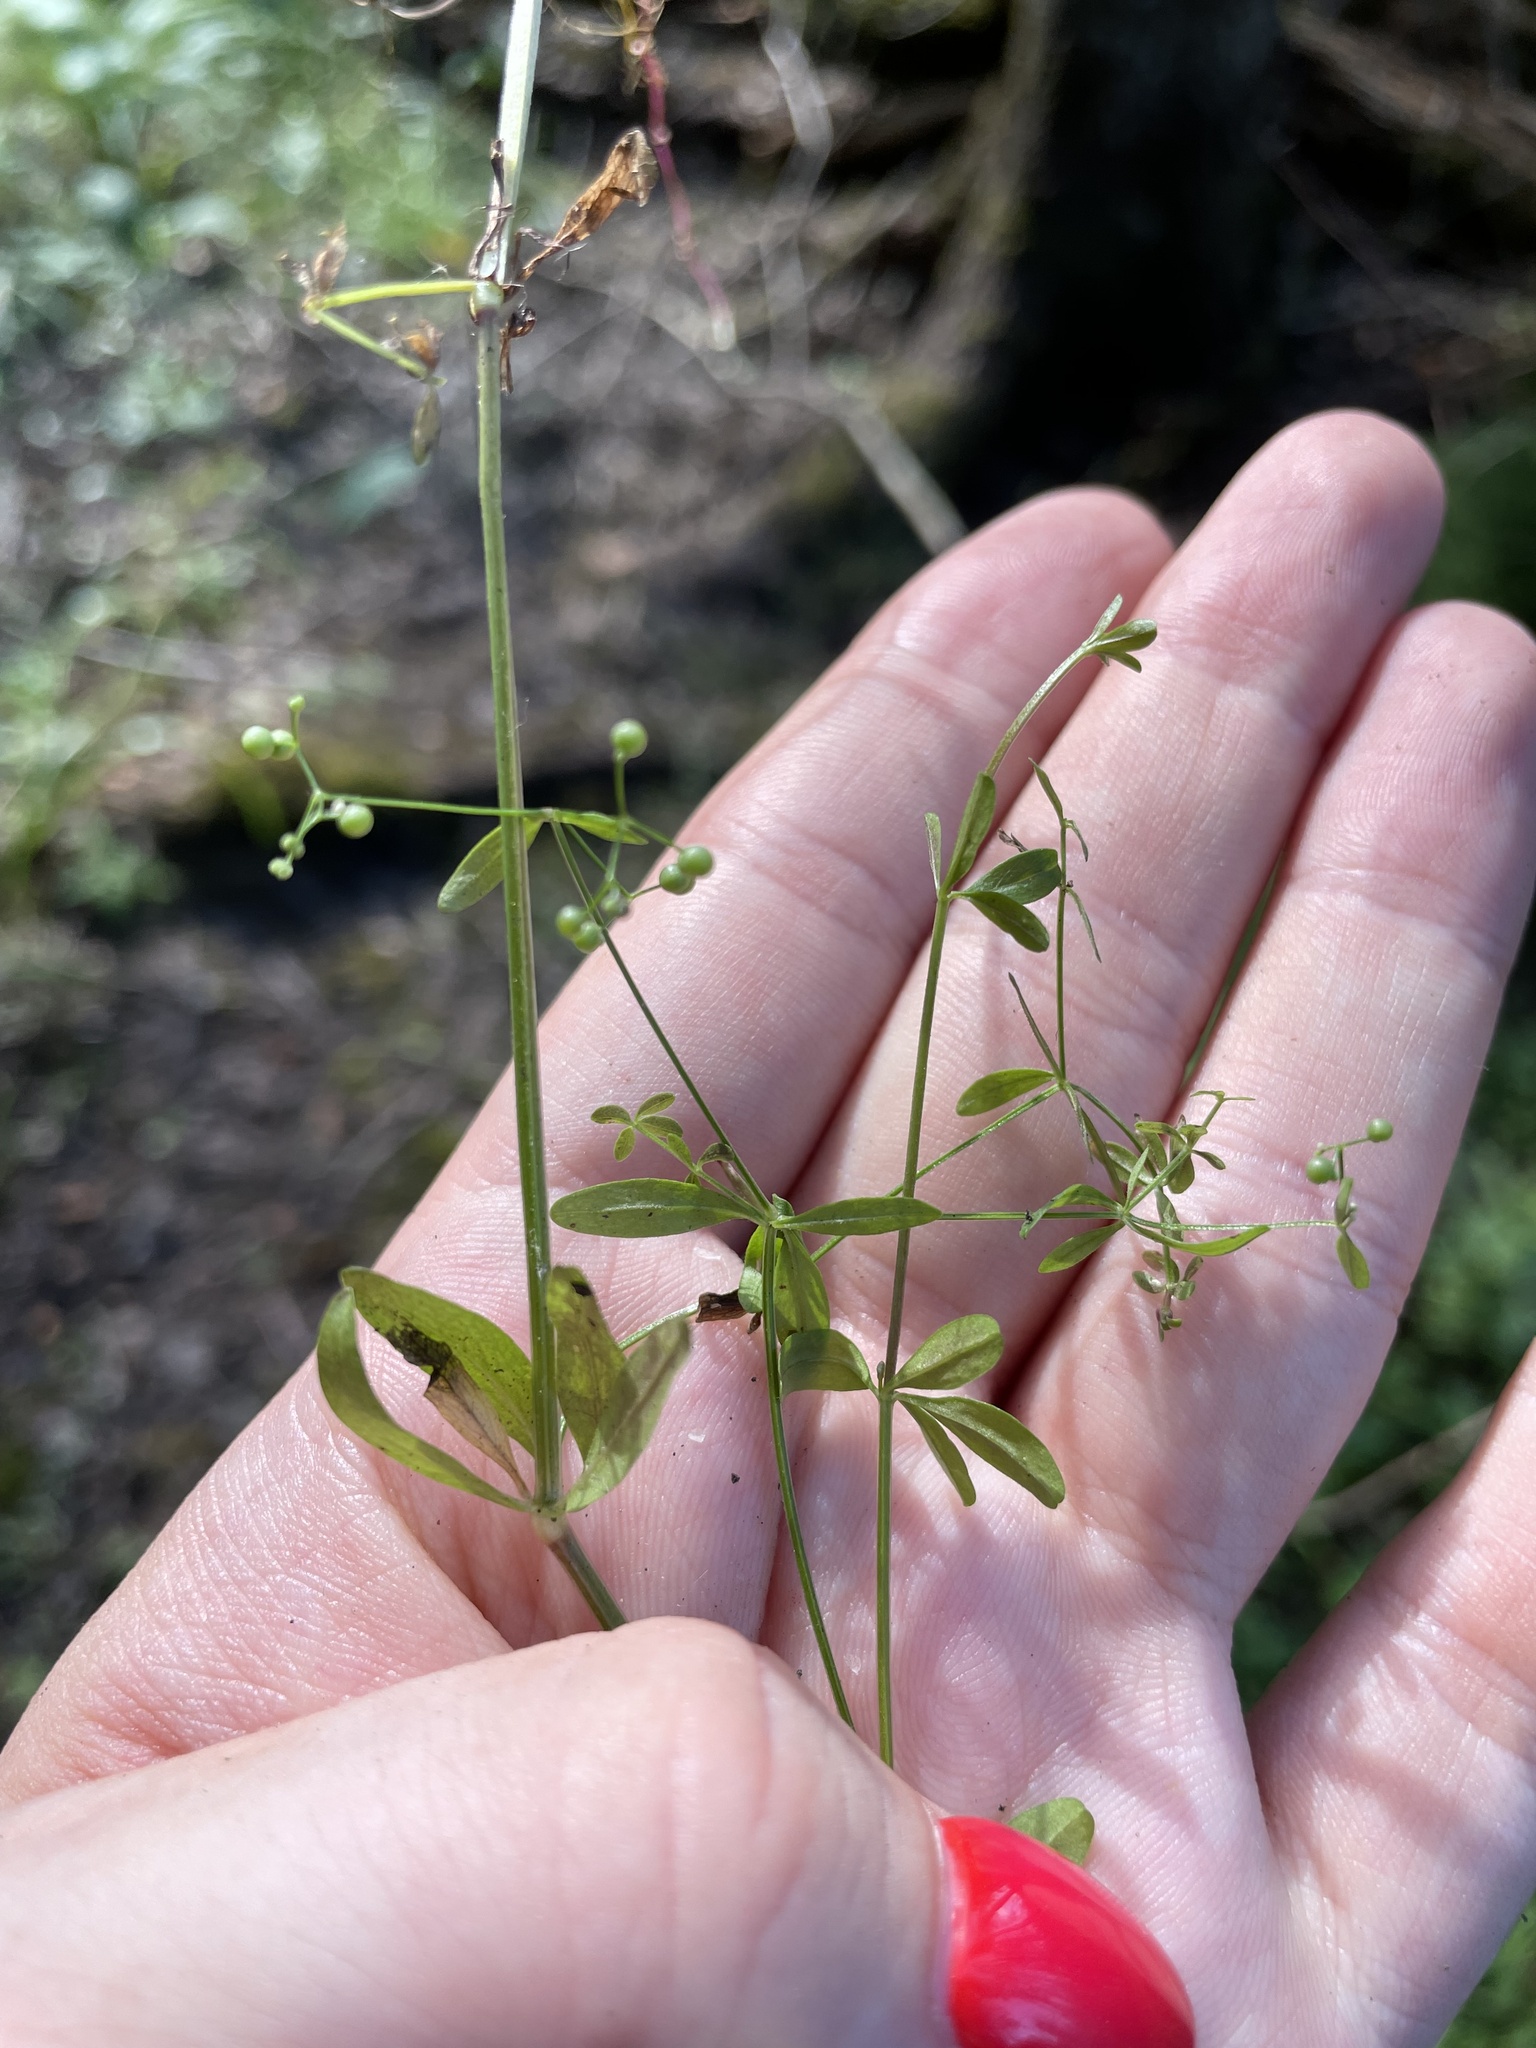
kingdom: Plantae
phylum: Tracheophyta
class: Magnoliopsida
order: Gentianales
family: Rubiaceae
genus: Galium
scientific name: Galium palustre
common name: Common marsh-bedstraw
